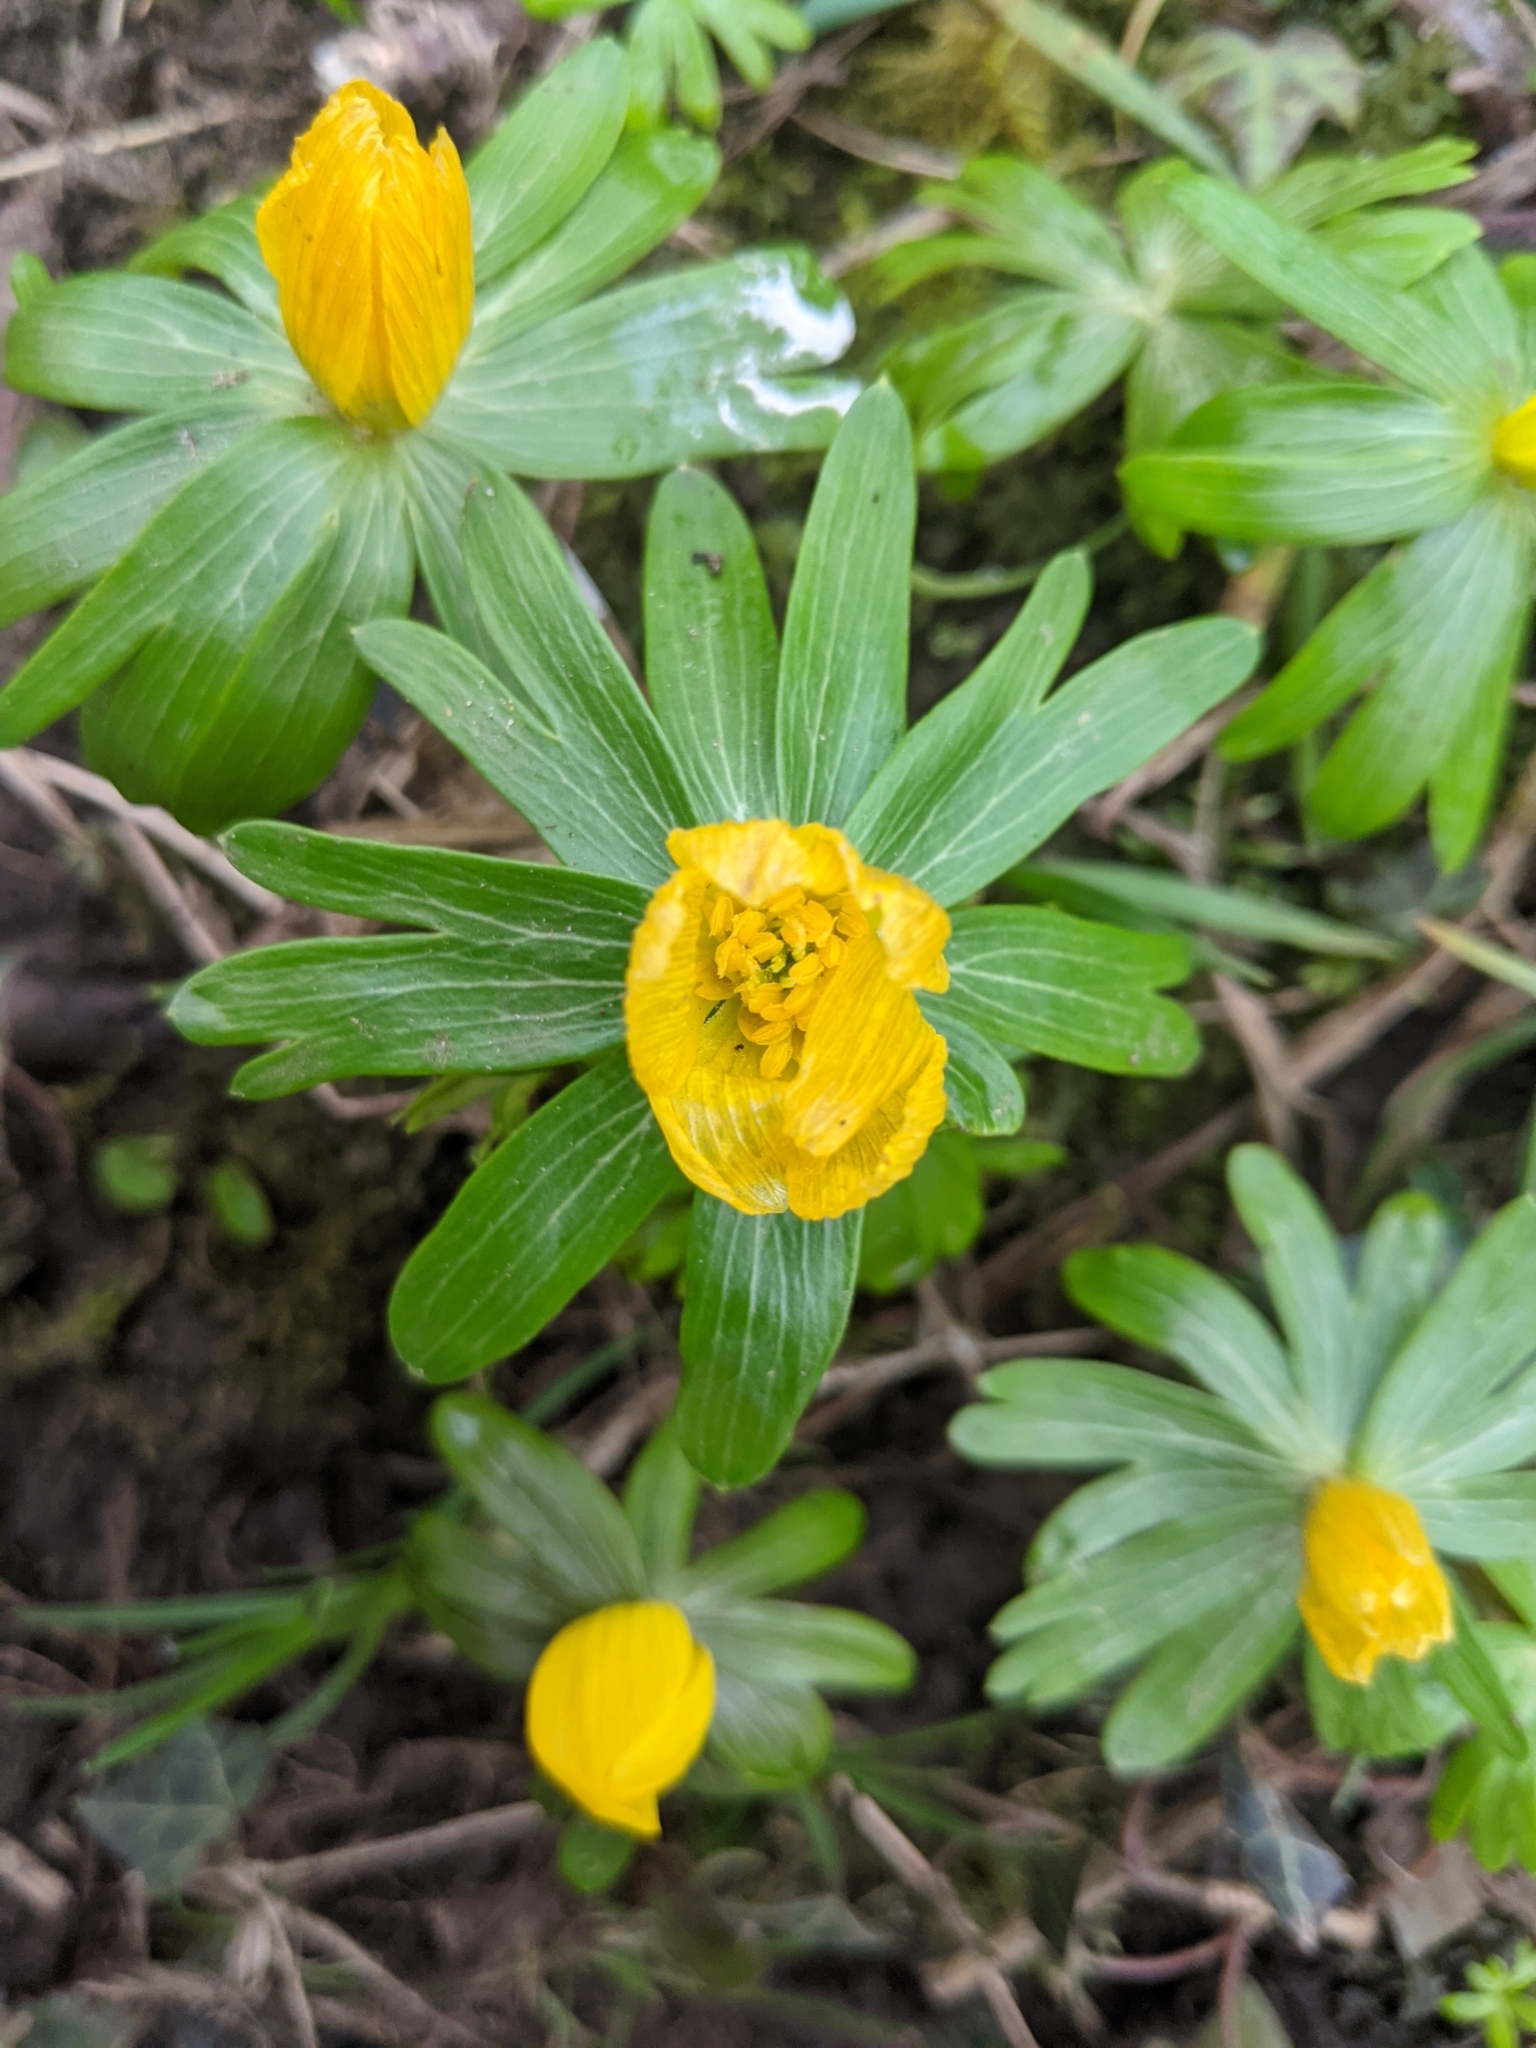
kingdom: Plantae
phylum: Tracheophyta
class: Magnoliopsida
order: Ranunculales
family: Ranunculaceae
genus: Eranthis
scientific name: Eranthis hyemalis
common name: Winter aconite
